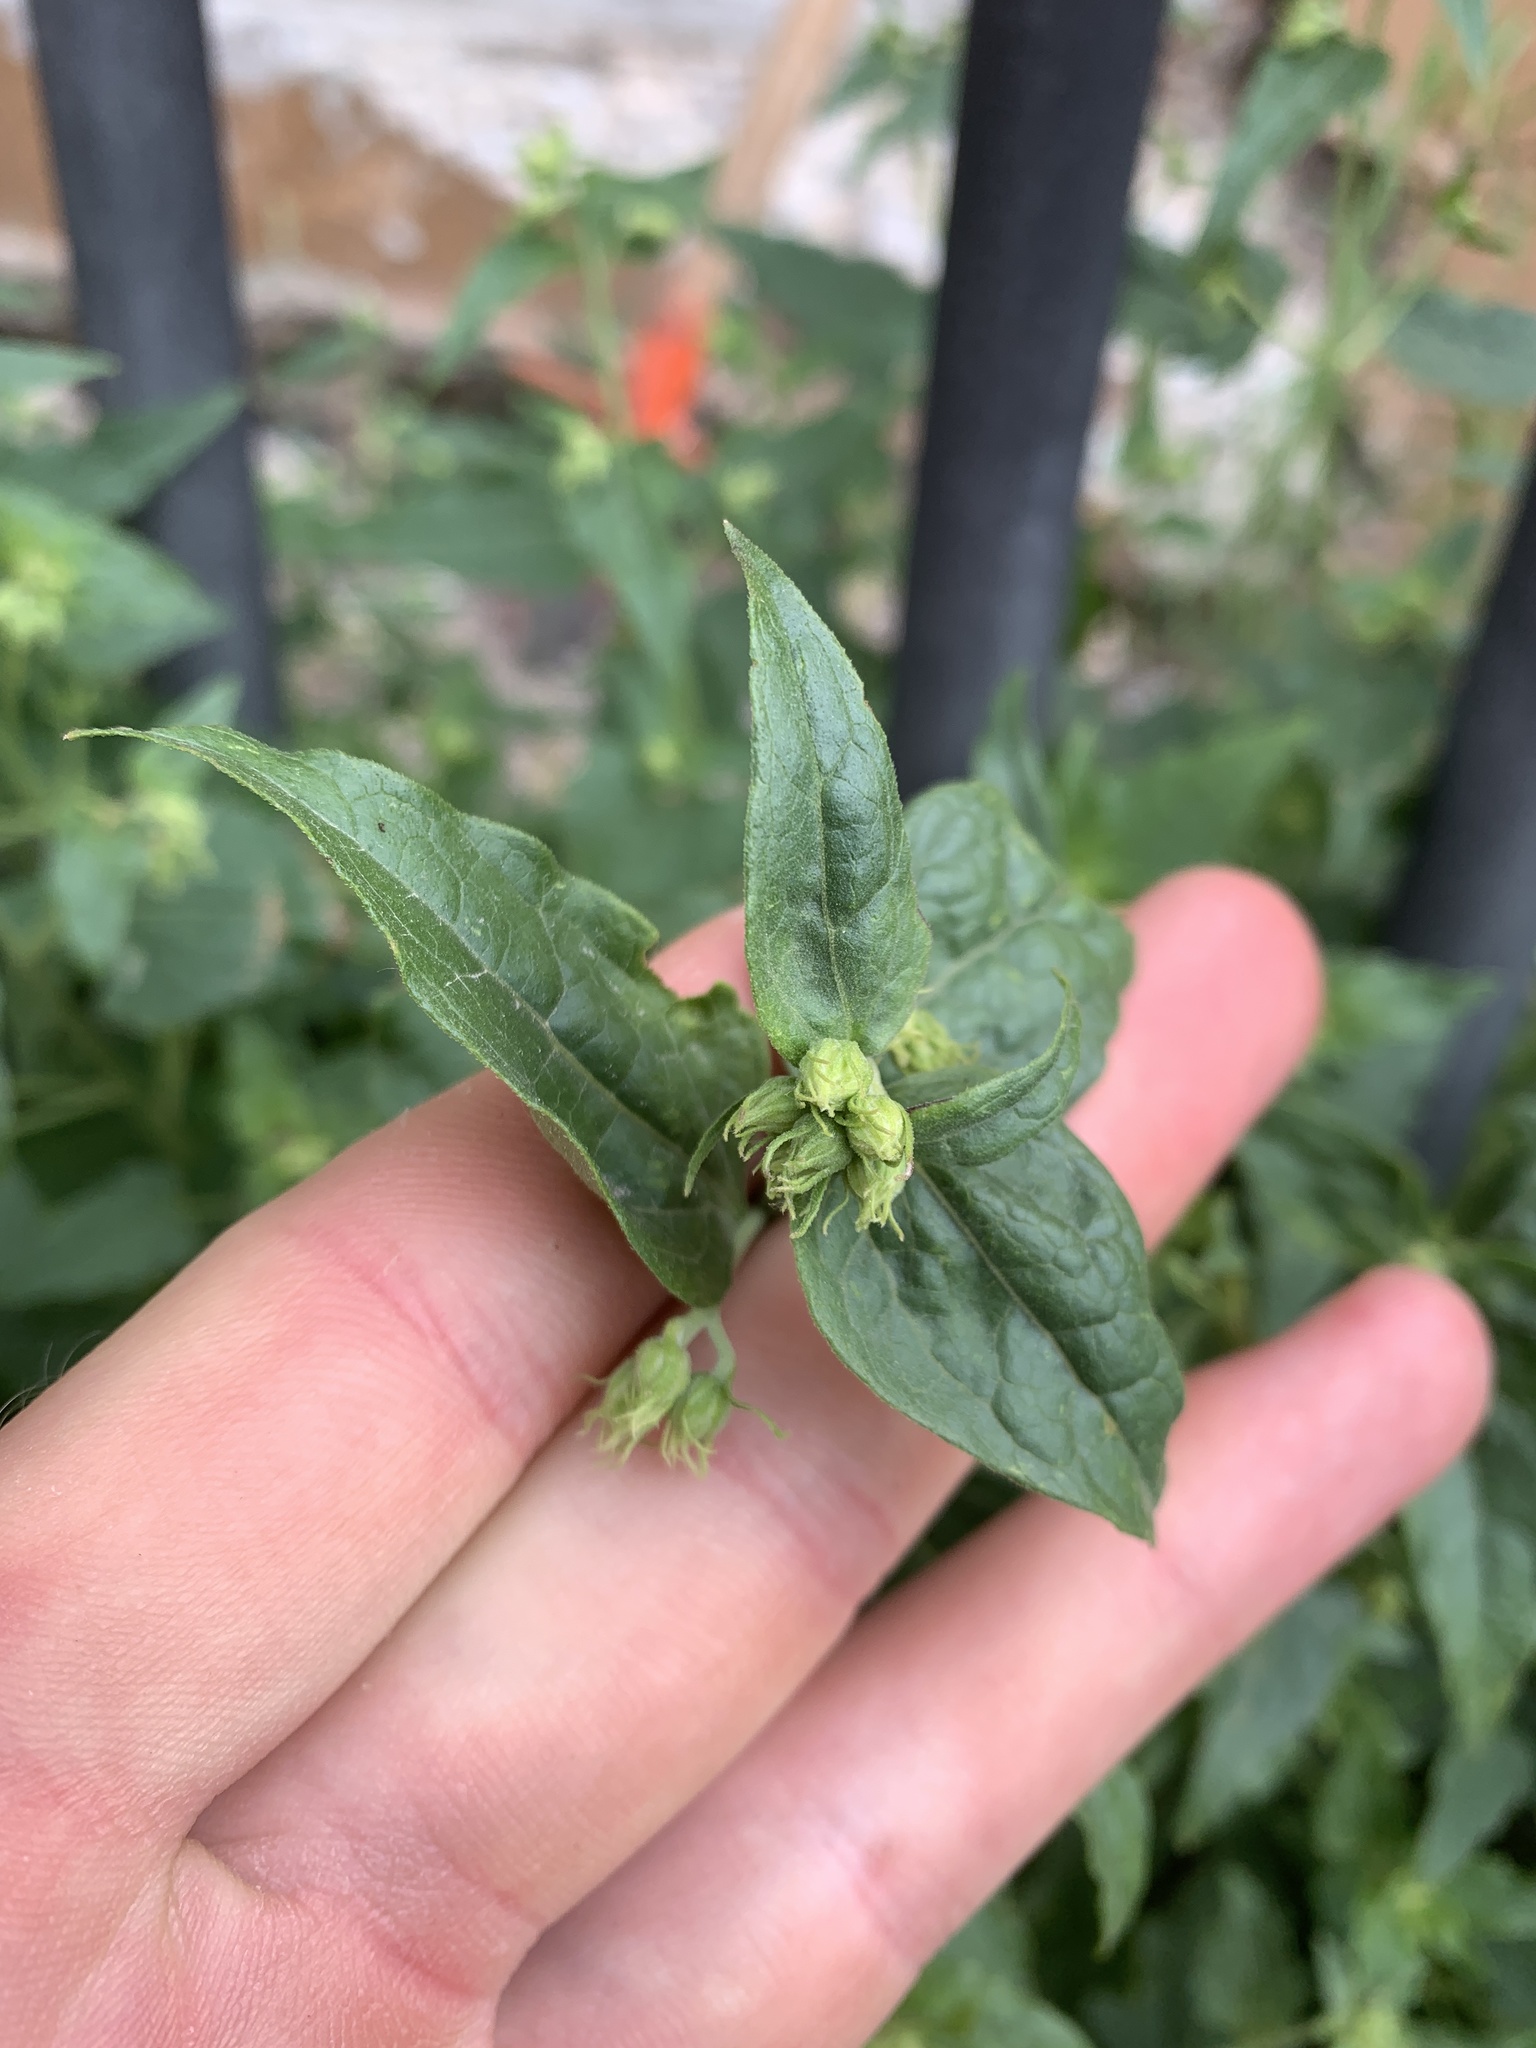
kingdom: Plantae
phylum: Tracheophyta
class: Magnoliopsida
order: Asterales
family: Asteraceae
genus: Brickellia
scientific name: Brickellia grandiflora
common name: Large-flowered brickellia
